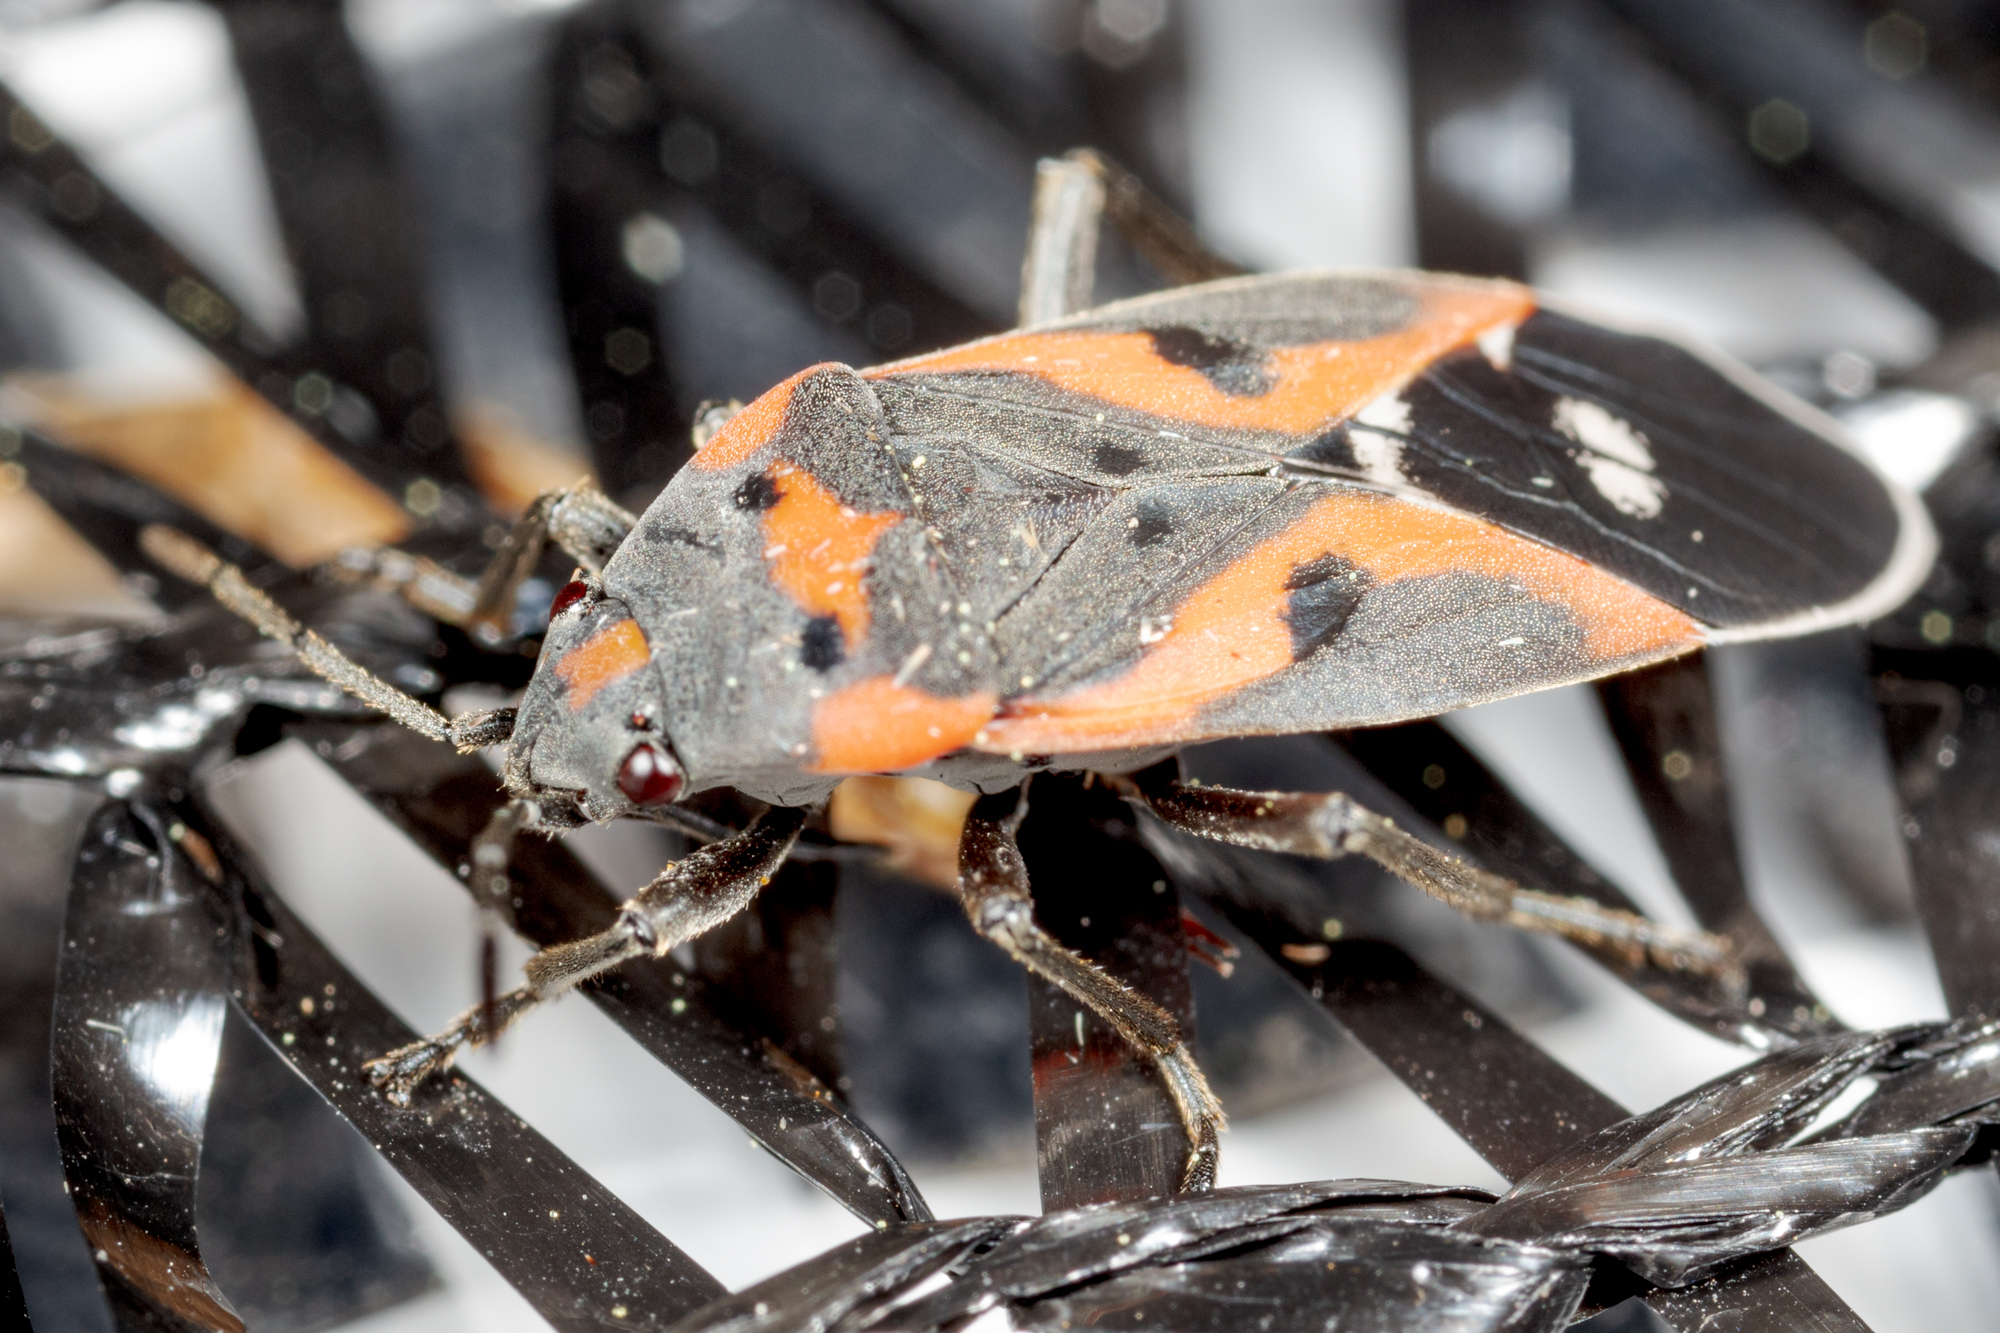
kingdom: Animalia
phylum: Arthropoda
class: Insecta
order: Hemiptera
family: Lygaeidae
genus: Lygaeus
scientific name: Lygaeus kalmii
